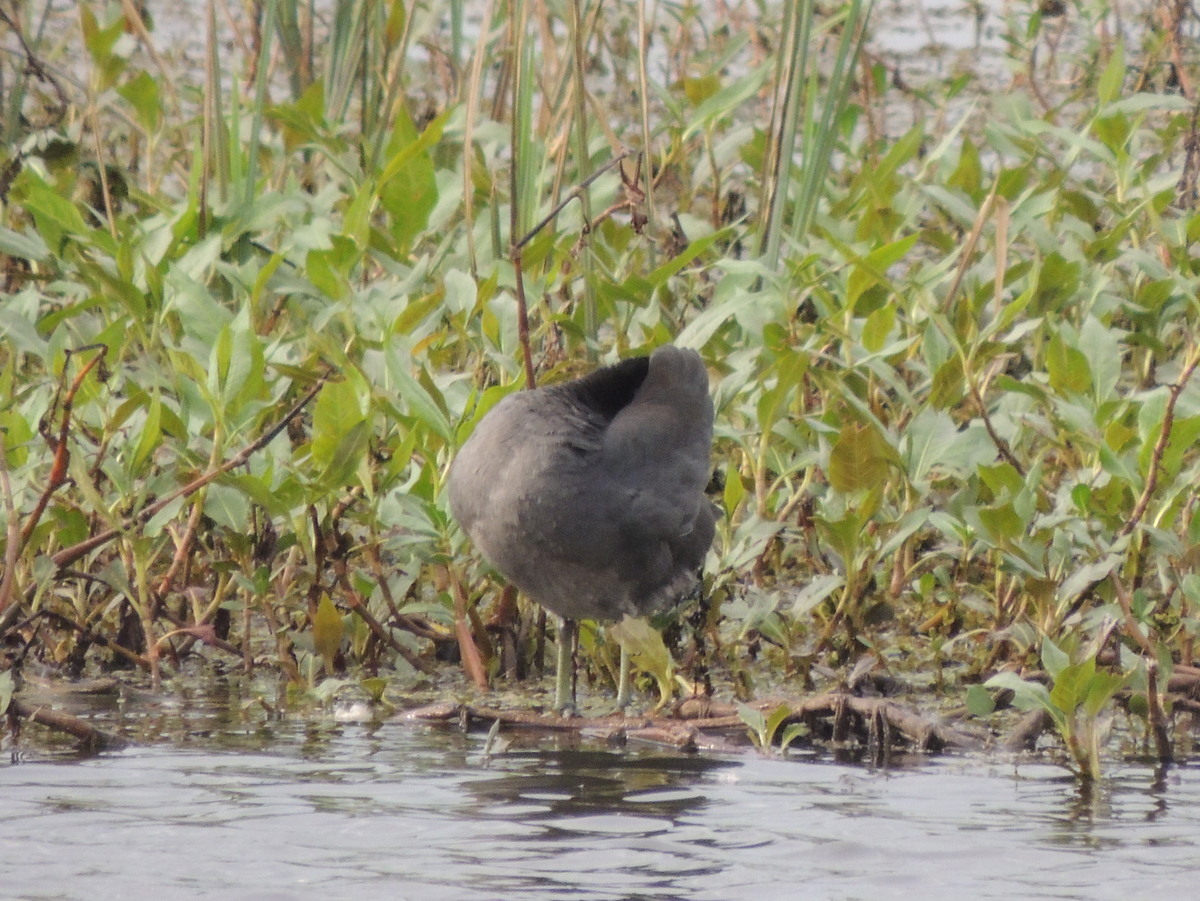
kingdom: Animalia
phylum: Chordata
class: Aves
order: Gruiformes
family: Rallidae
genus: Fulica
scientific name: Fulica americana
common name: American coot
